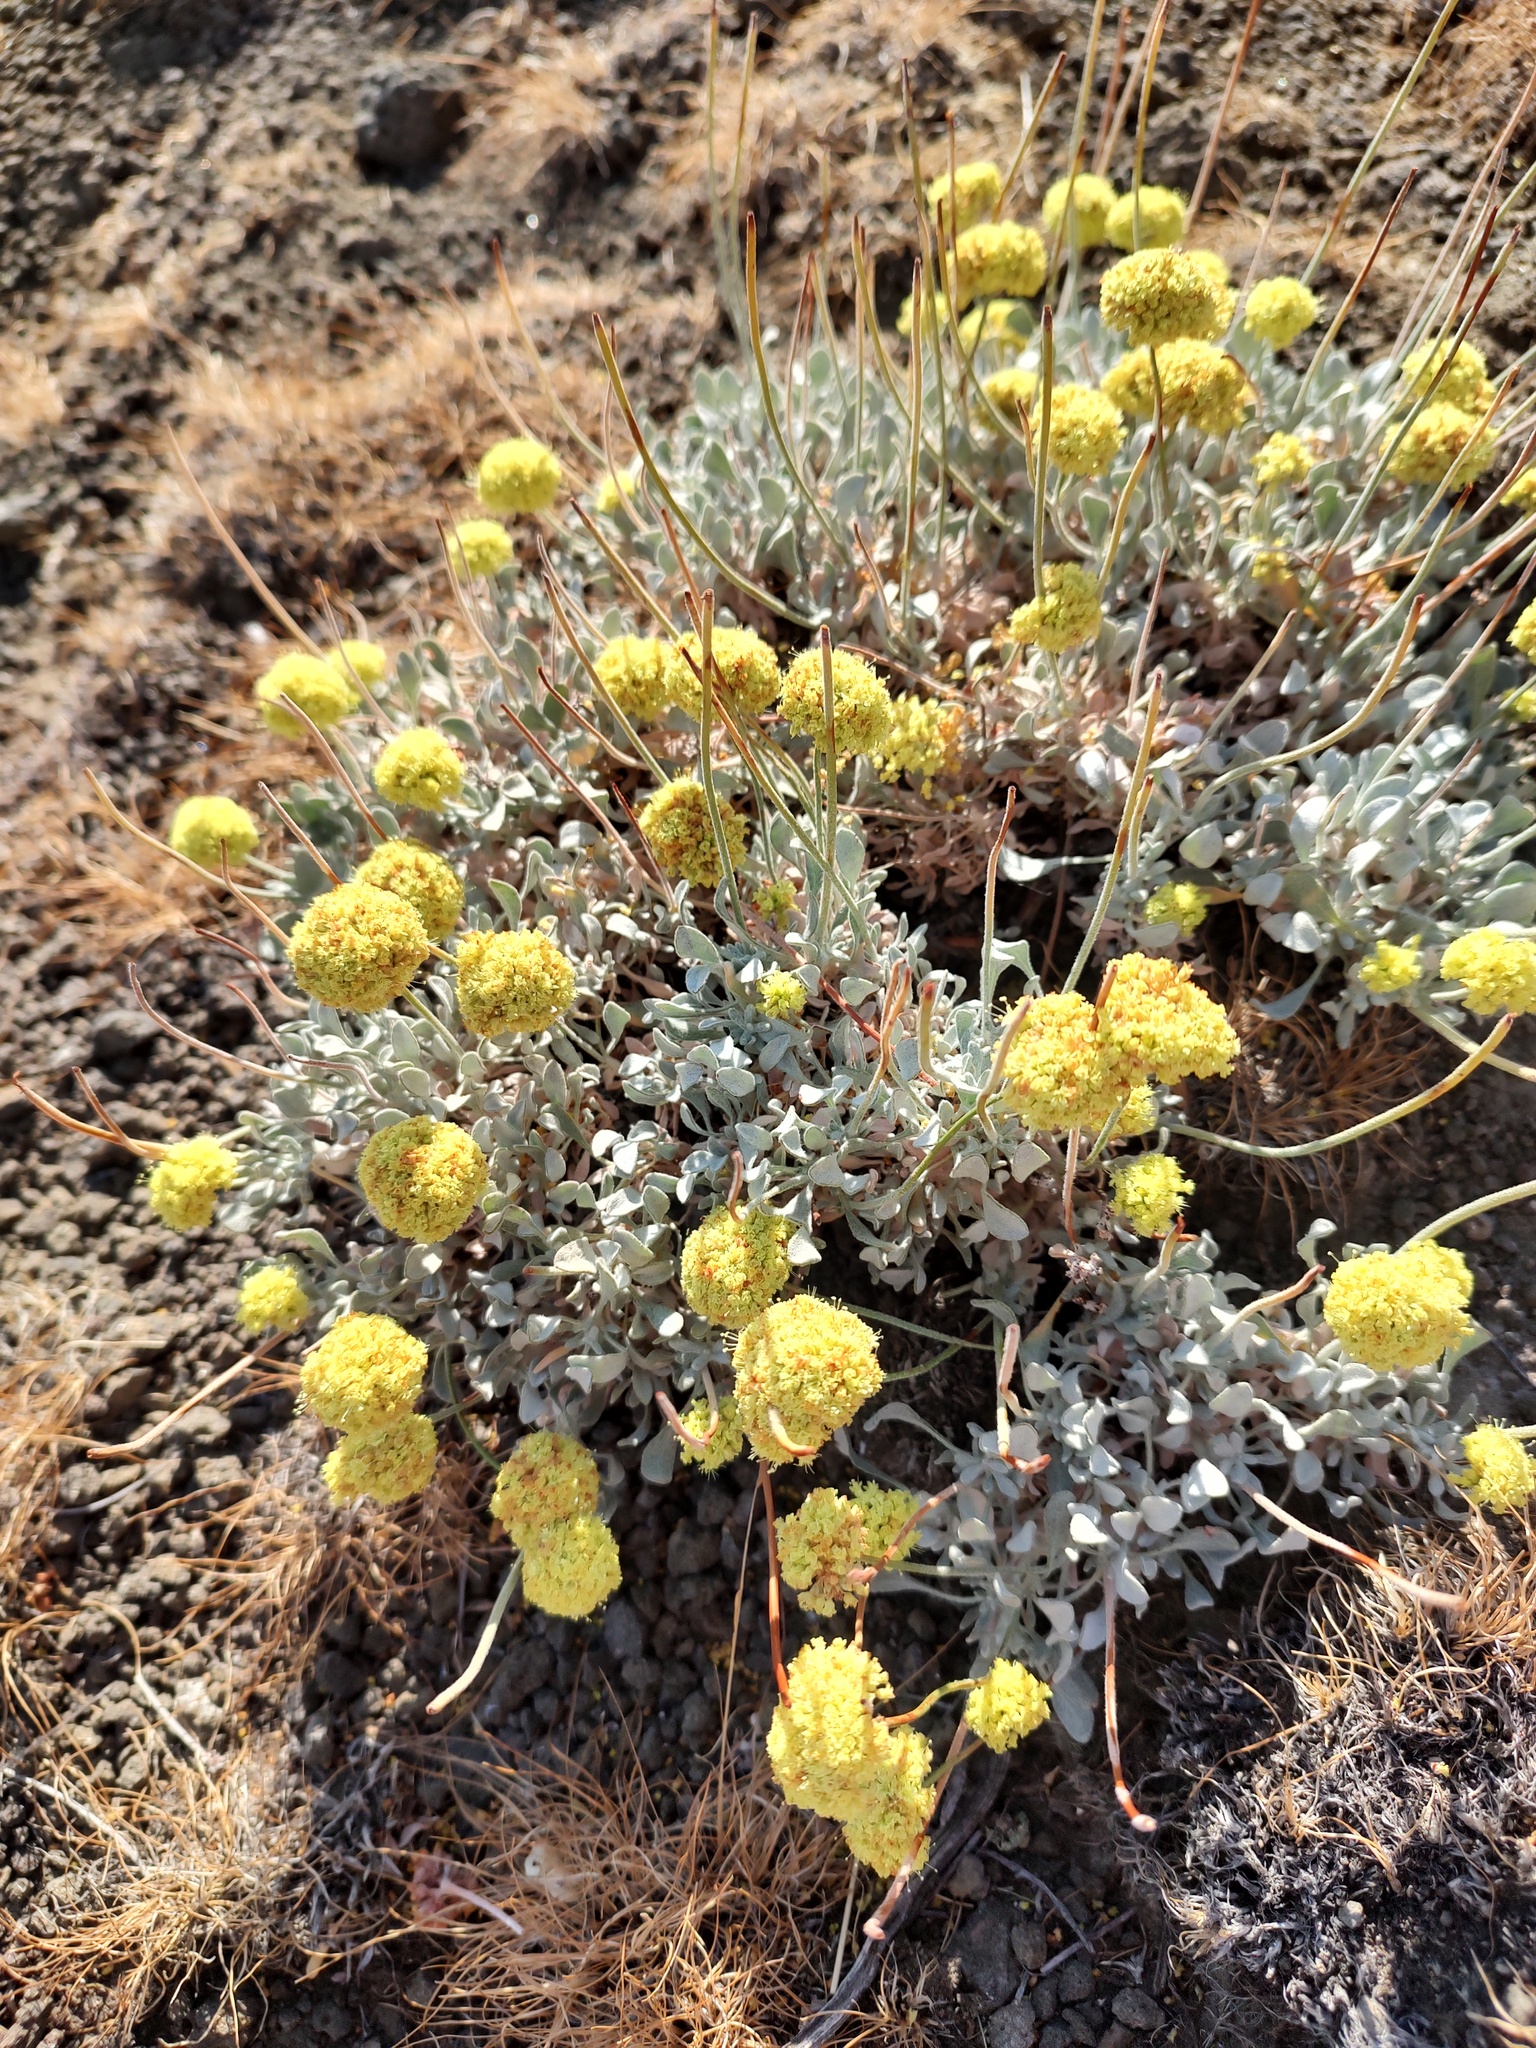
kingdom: Plantae
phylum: Tracheophyta
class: Magnoliopsida
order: Caryophyllales
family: Polygonaceae
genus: Eriogonum
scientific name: Eriogonum codium
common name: Umtanum desert wild buckwheat
